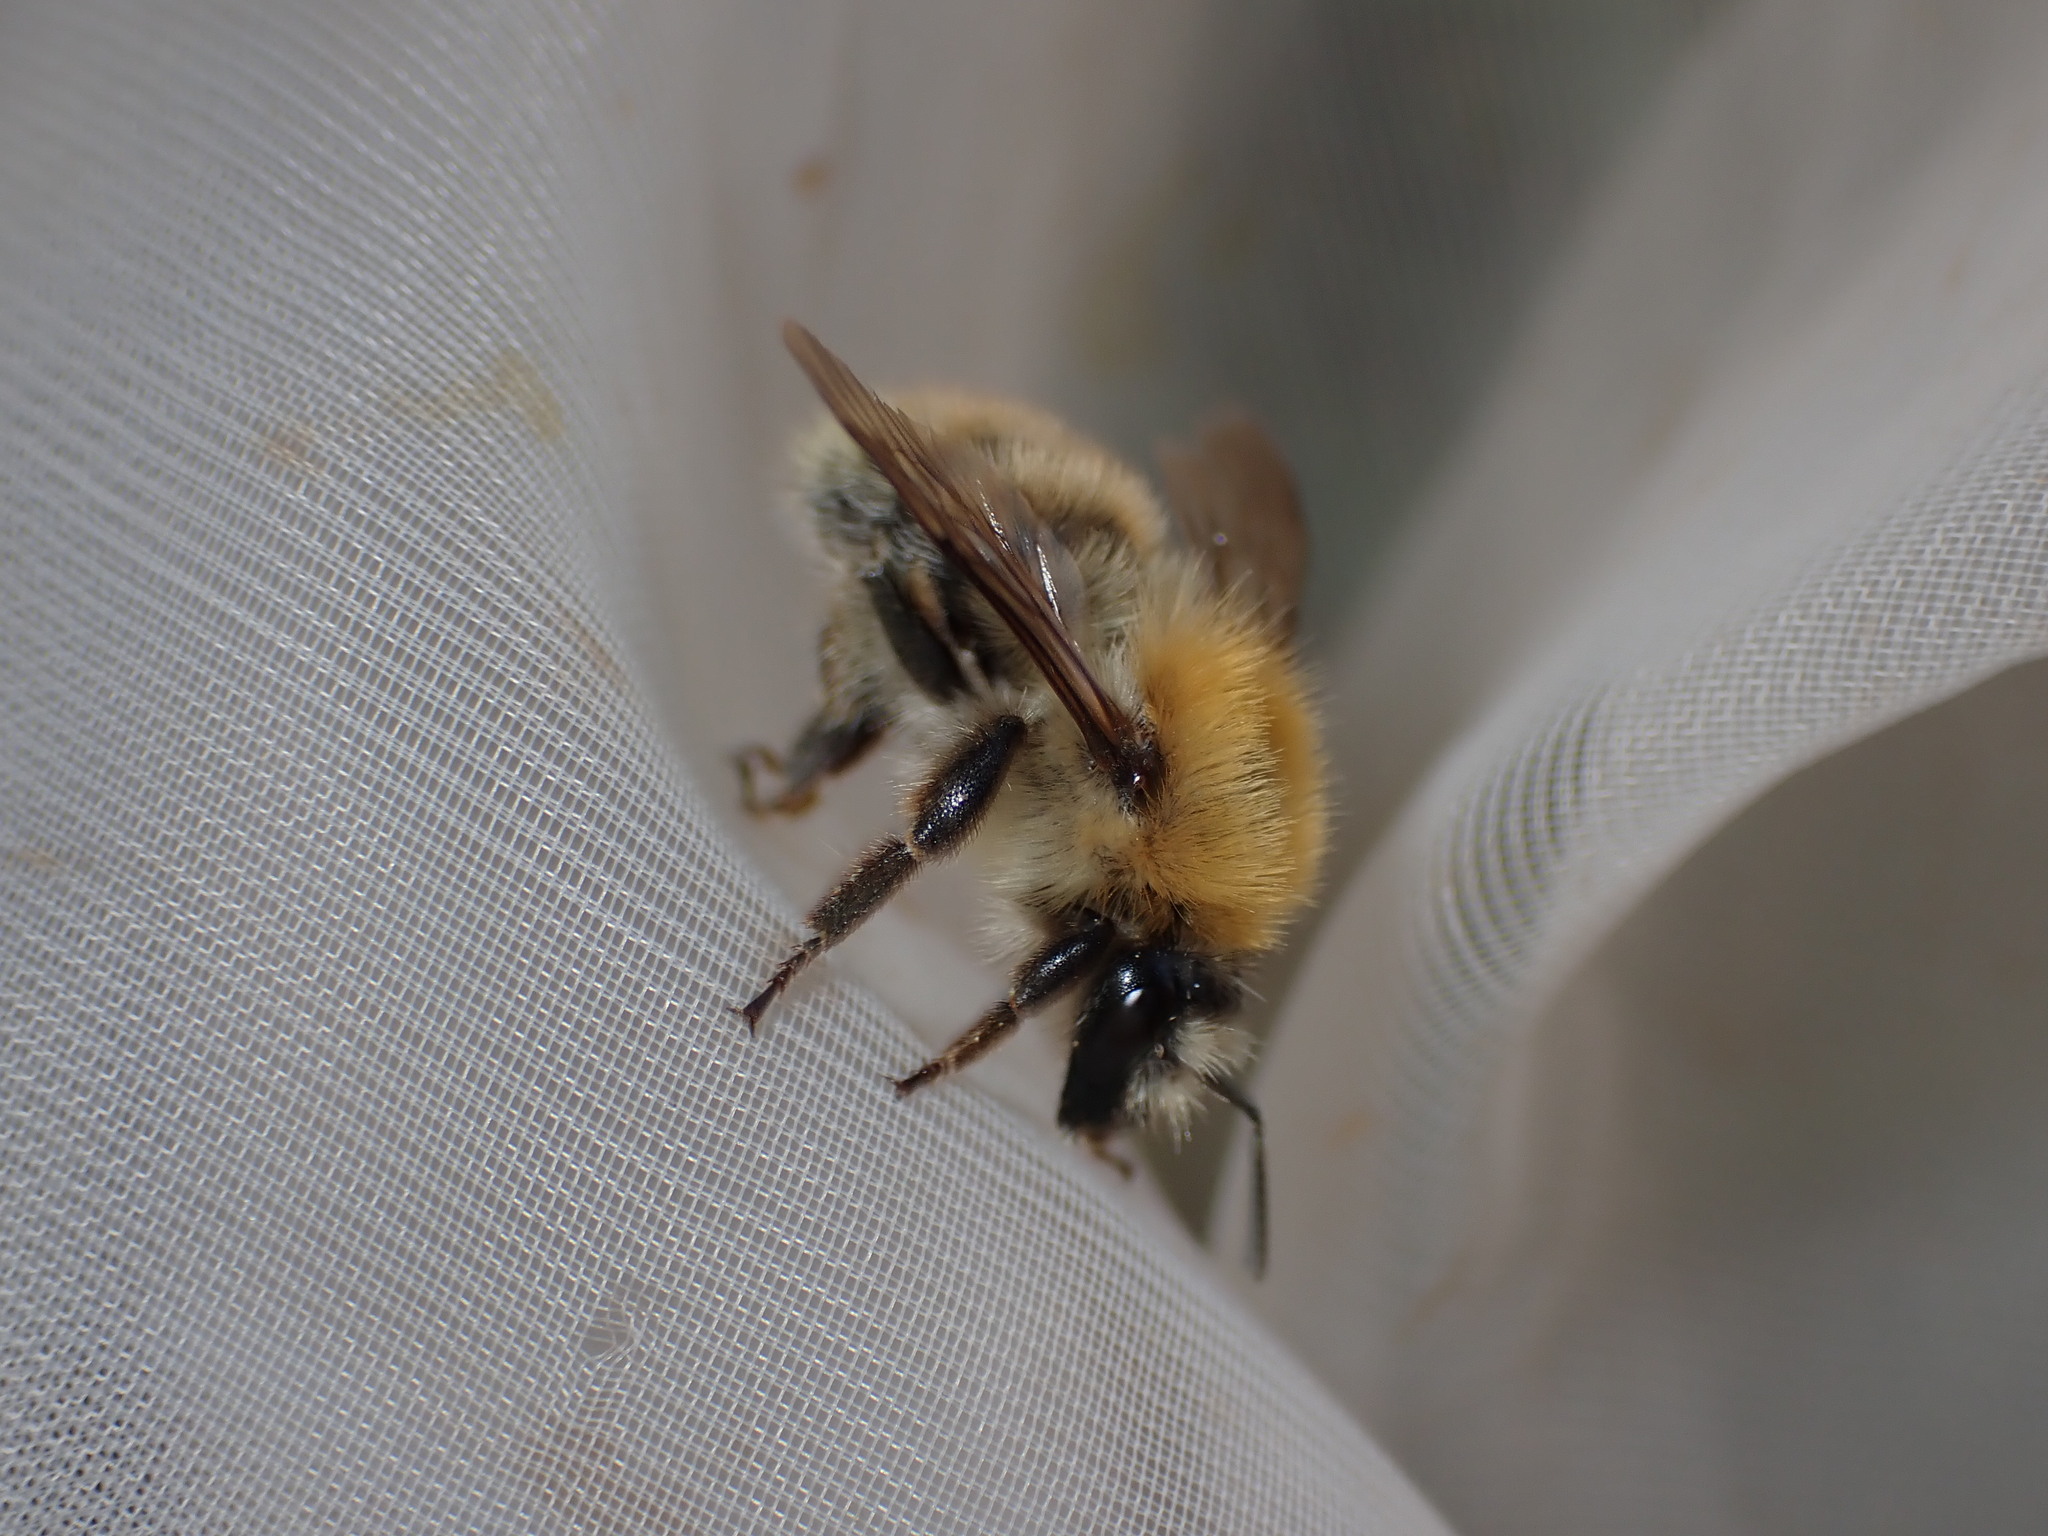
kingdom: Animalia
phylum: Arthropoda
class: Insecta
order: Hymenoptera
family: Apidae
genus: Bombus
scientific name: Bombus pascuorum
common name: Common carder bee
